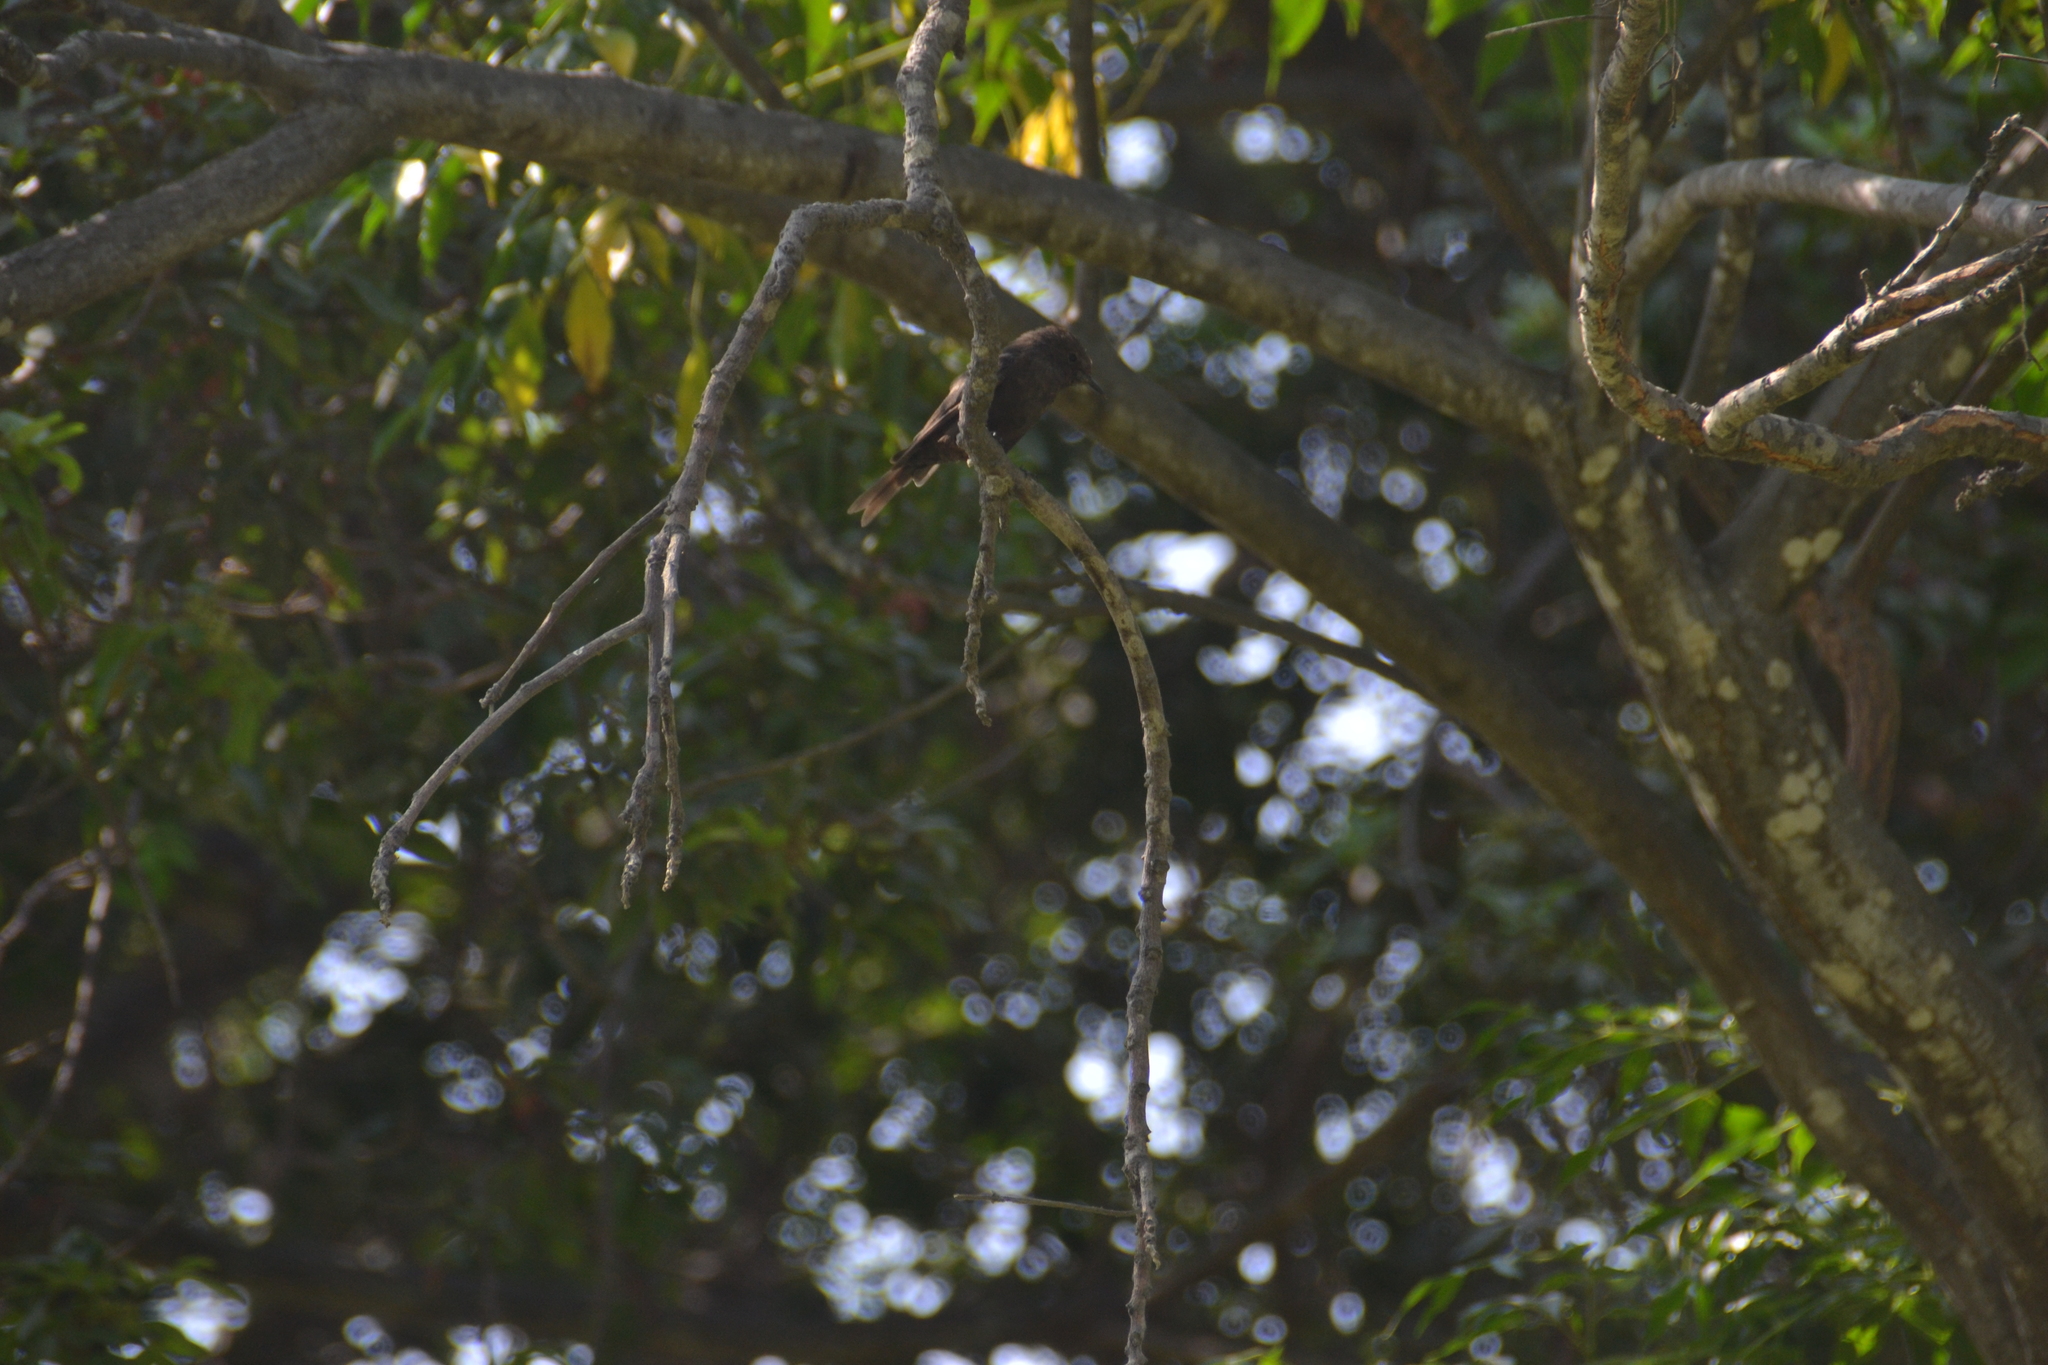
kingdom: Animalia
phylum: Chordata
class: Aves
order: Passeriformes
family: Tyrannidae
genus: Pyrocephalus
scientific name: Pyrocephalus rubinus
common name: Vermilion flycatcher
